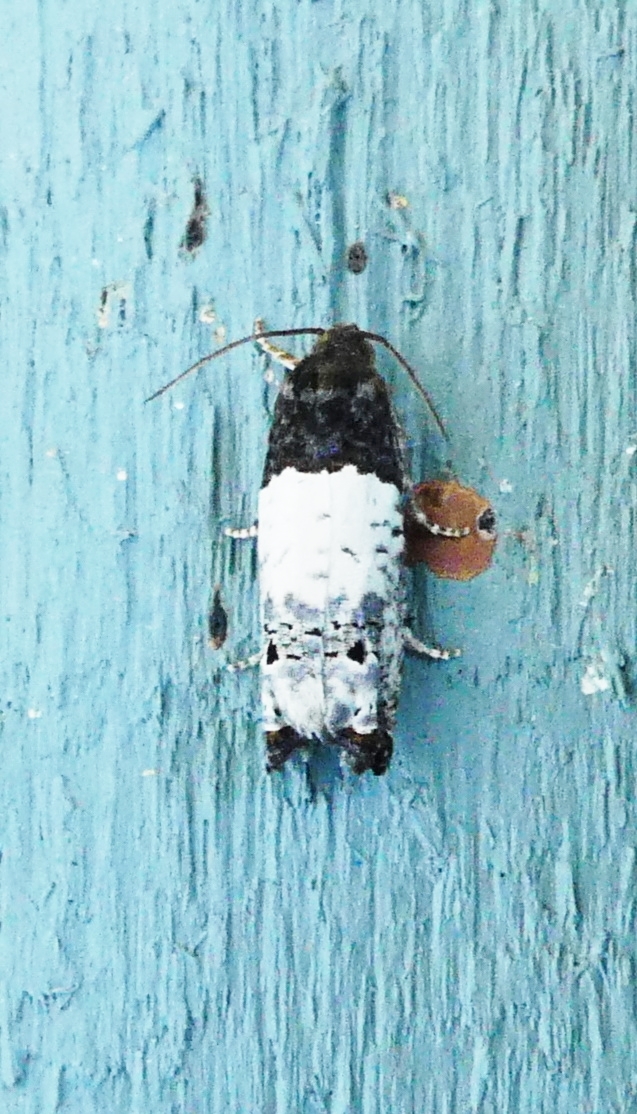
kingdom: Animalia
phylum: Arthropoda
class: Insecta
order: Lepidoptera
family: Tortricidae
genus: Epiblema
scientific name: Epiblema scudderiana
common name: Goldenrod gall moth
